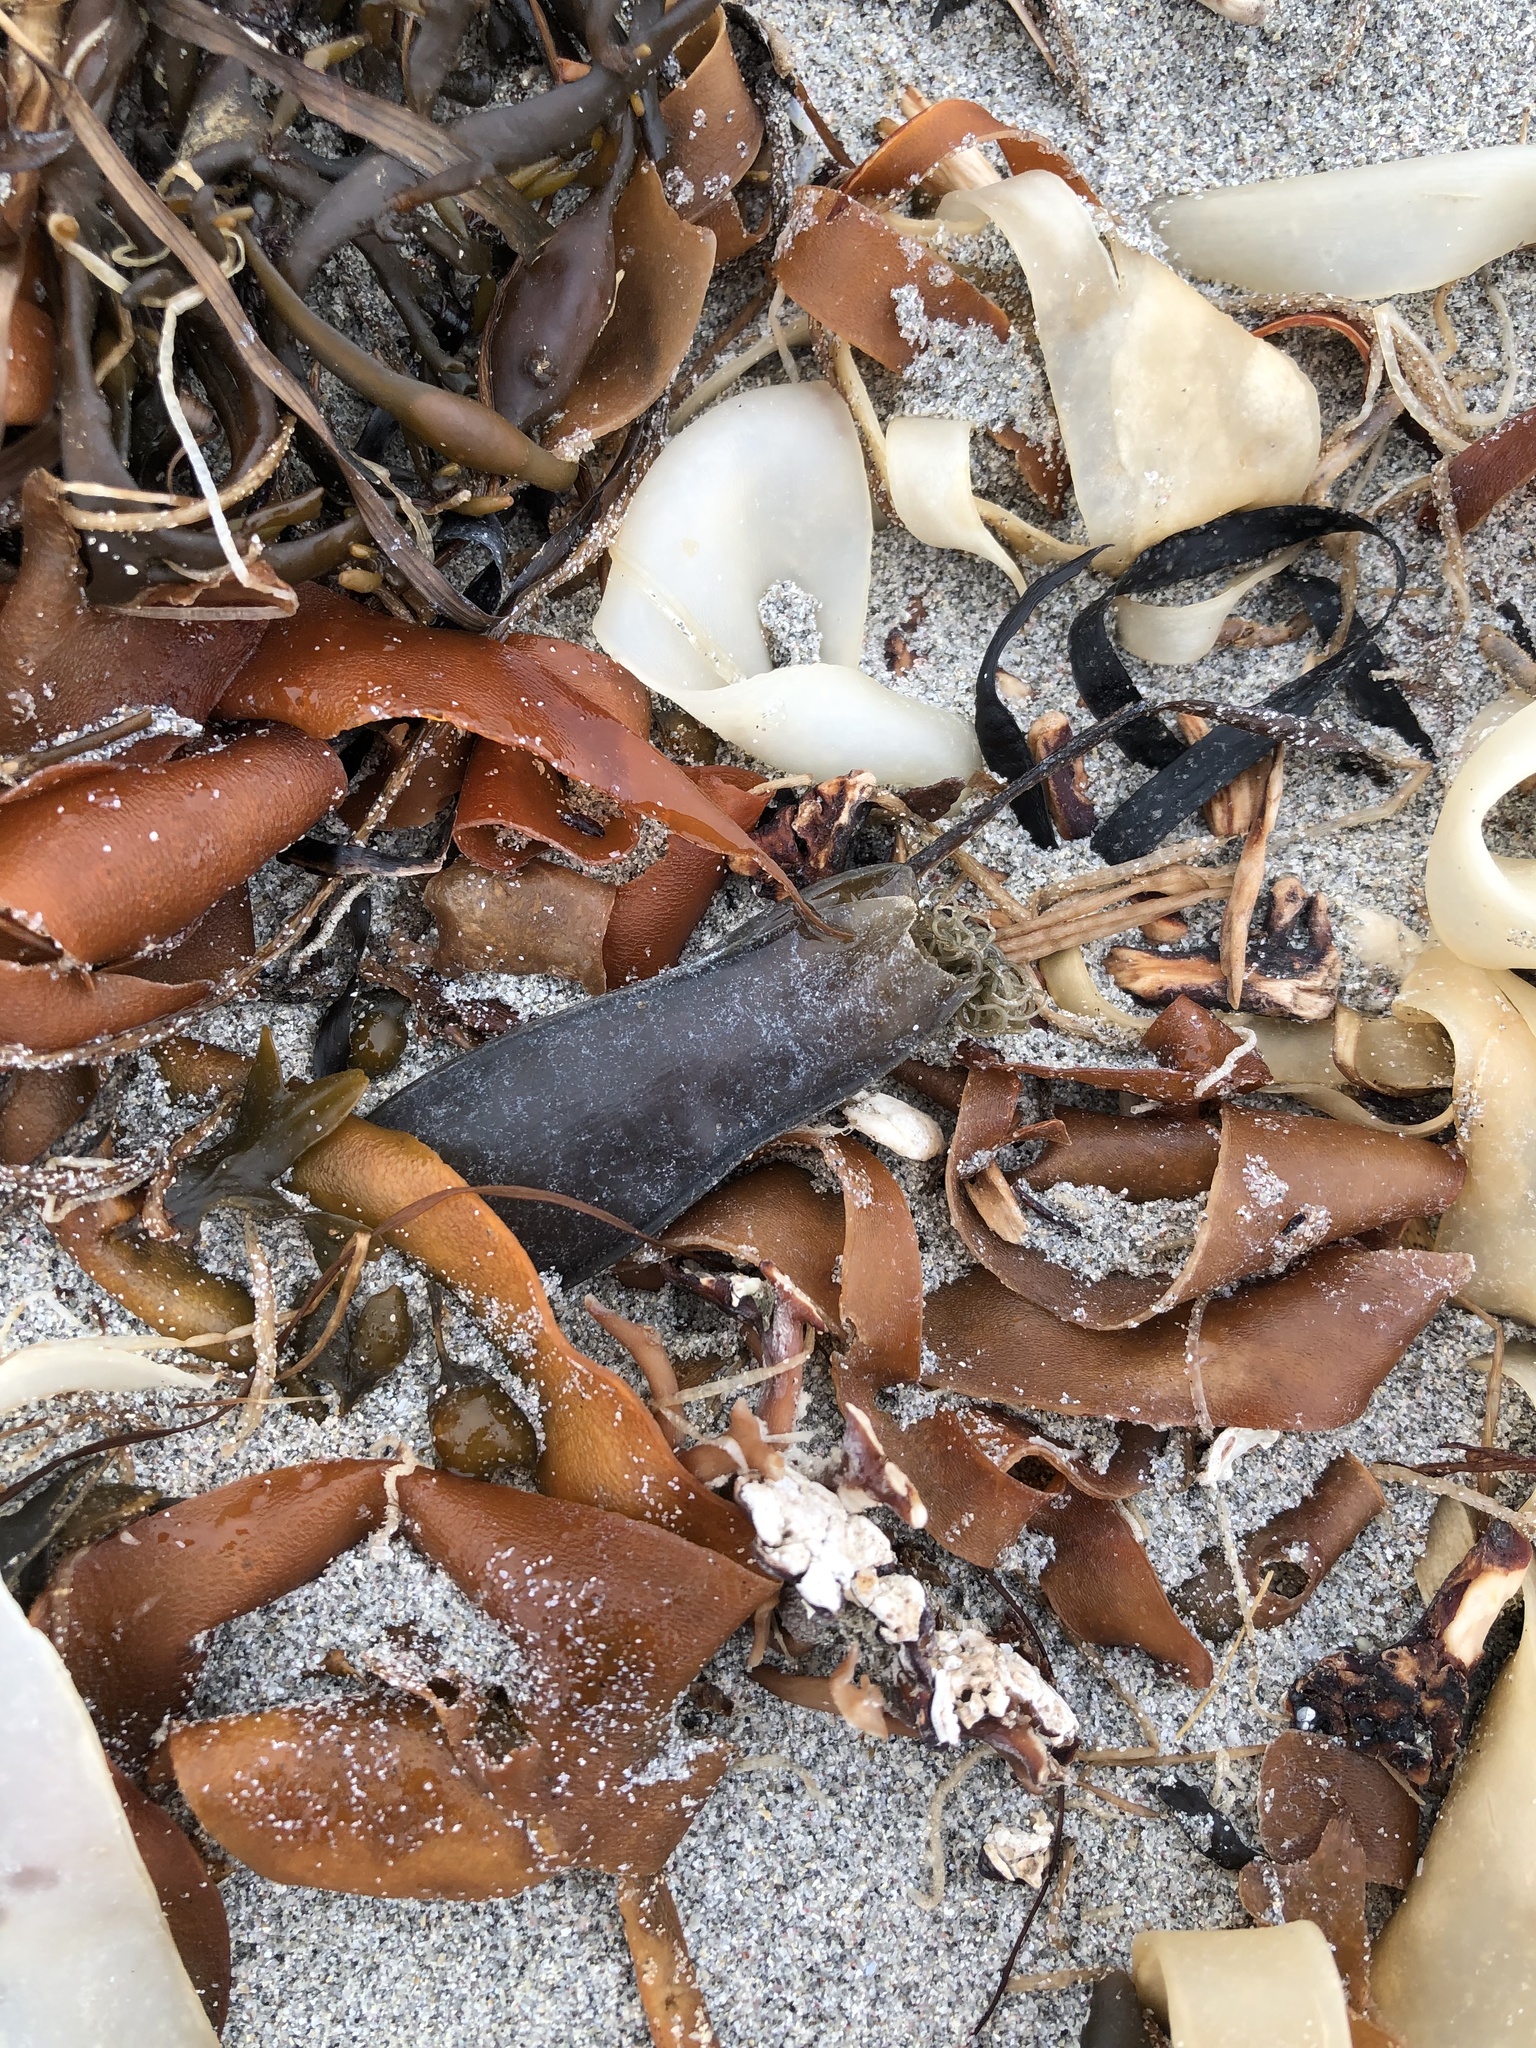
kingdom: Animalia
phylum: Chordata
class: Elasmobranchii
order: Carcharhiniformes
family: Scyliorhinidae
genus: Scyliorhinus
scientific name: Scyliorhinus canicula
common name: Lesser spotted dogfish
